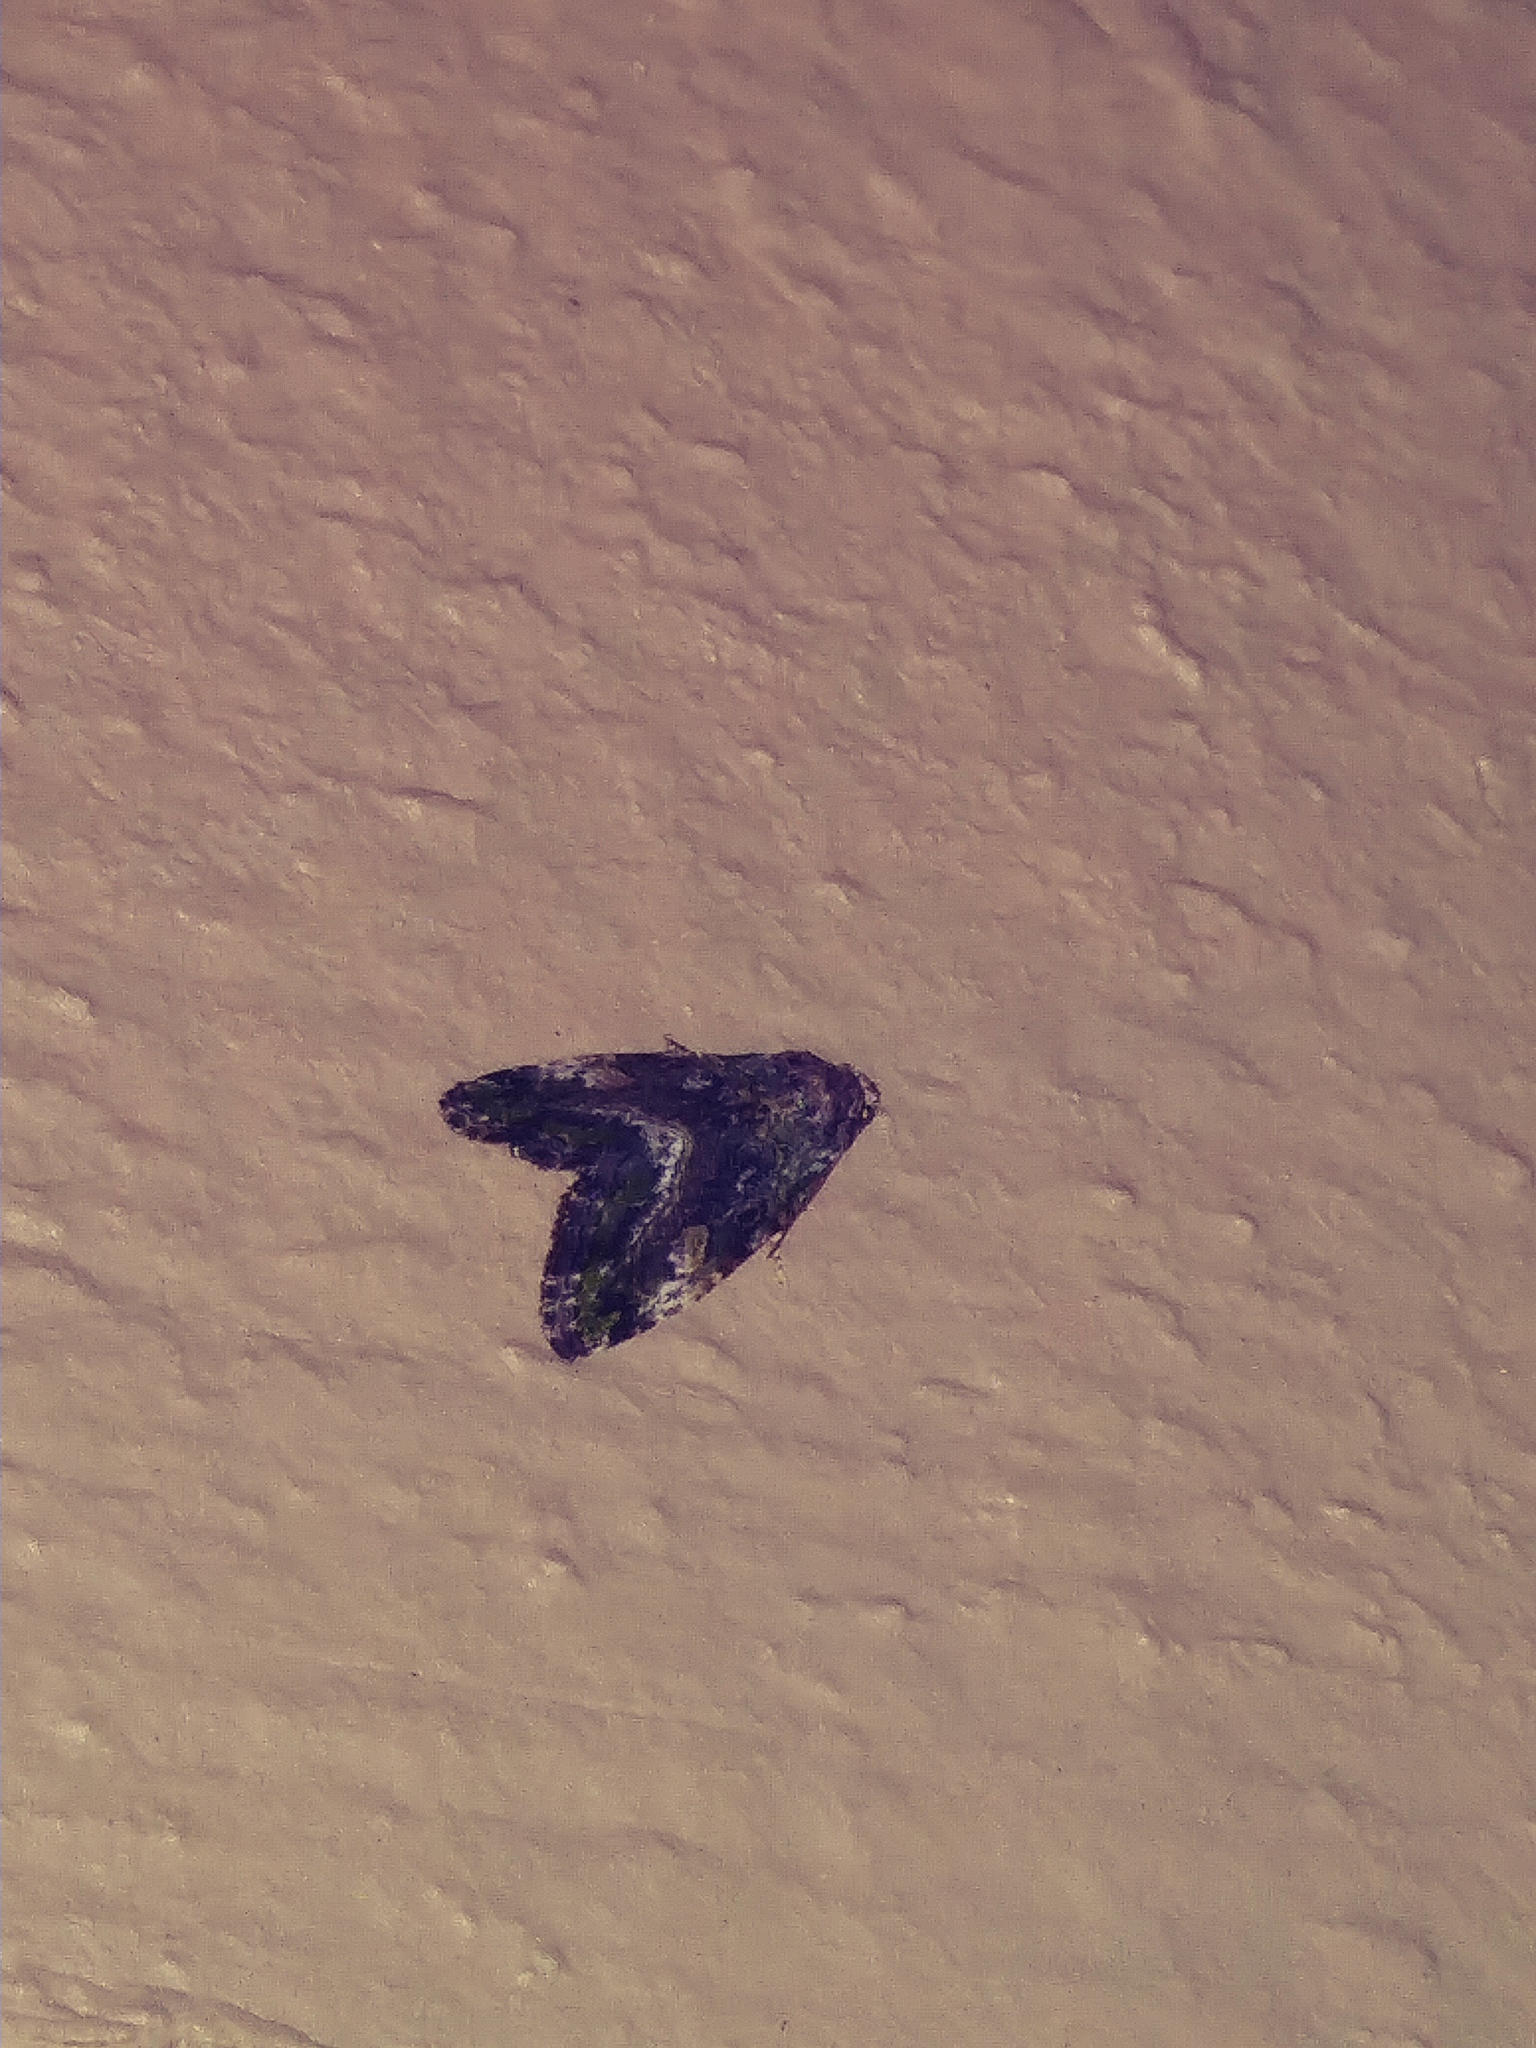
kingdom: Animalia
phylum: Arthropoda
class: Insecta
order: Lepidoptera
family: Noctuidae
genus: Lithacodia
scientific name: Lithacodia musta
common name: Small mossy glyph
